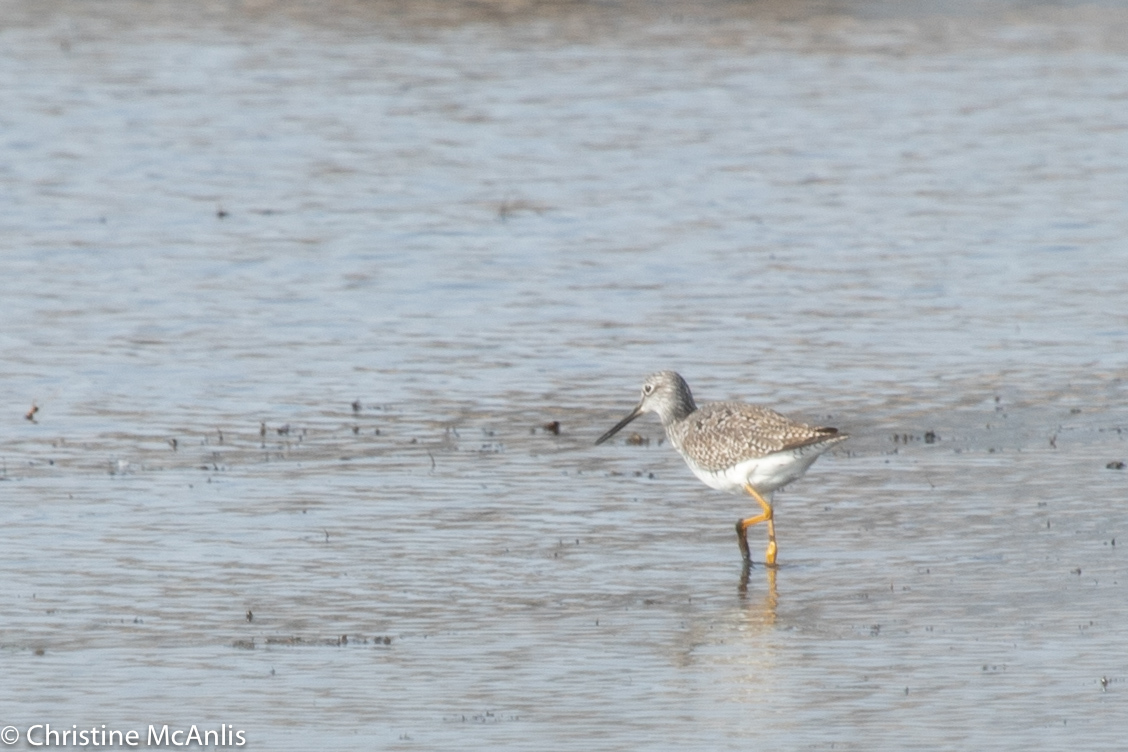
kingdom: Animalia
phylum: Chordata
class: Aves
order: Charadriiformes
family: Scolopacidae
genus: Tringa
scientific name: Tringa melanoleuca
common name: Greater yellowlegs
